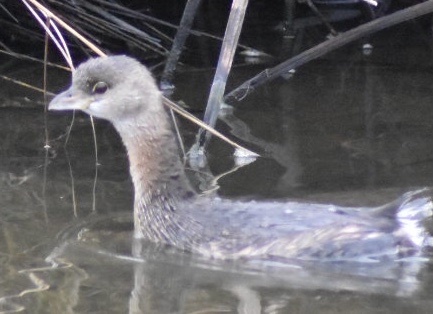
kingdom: Animalia
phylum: Chordata
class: Aves
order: Podicipediformes
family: Podicipedidae
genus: Podilymbus
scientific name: Podilymbus podiceps
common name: Pied-billed grebe
